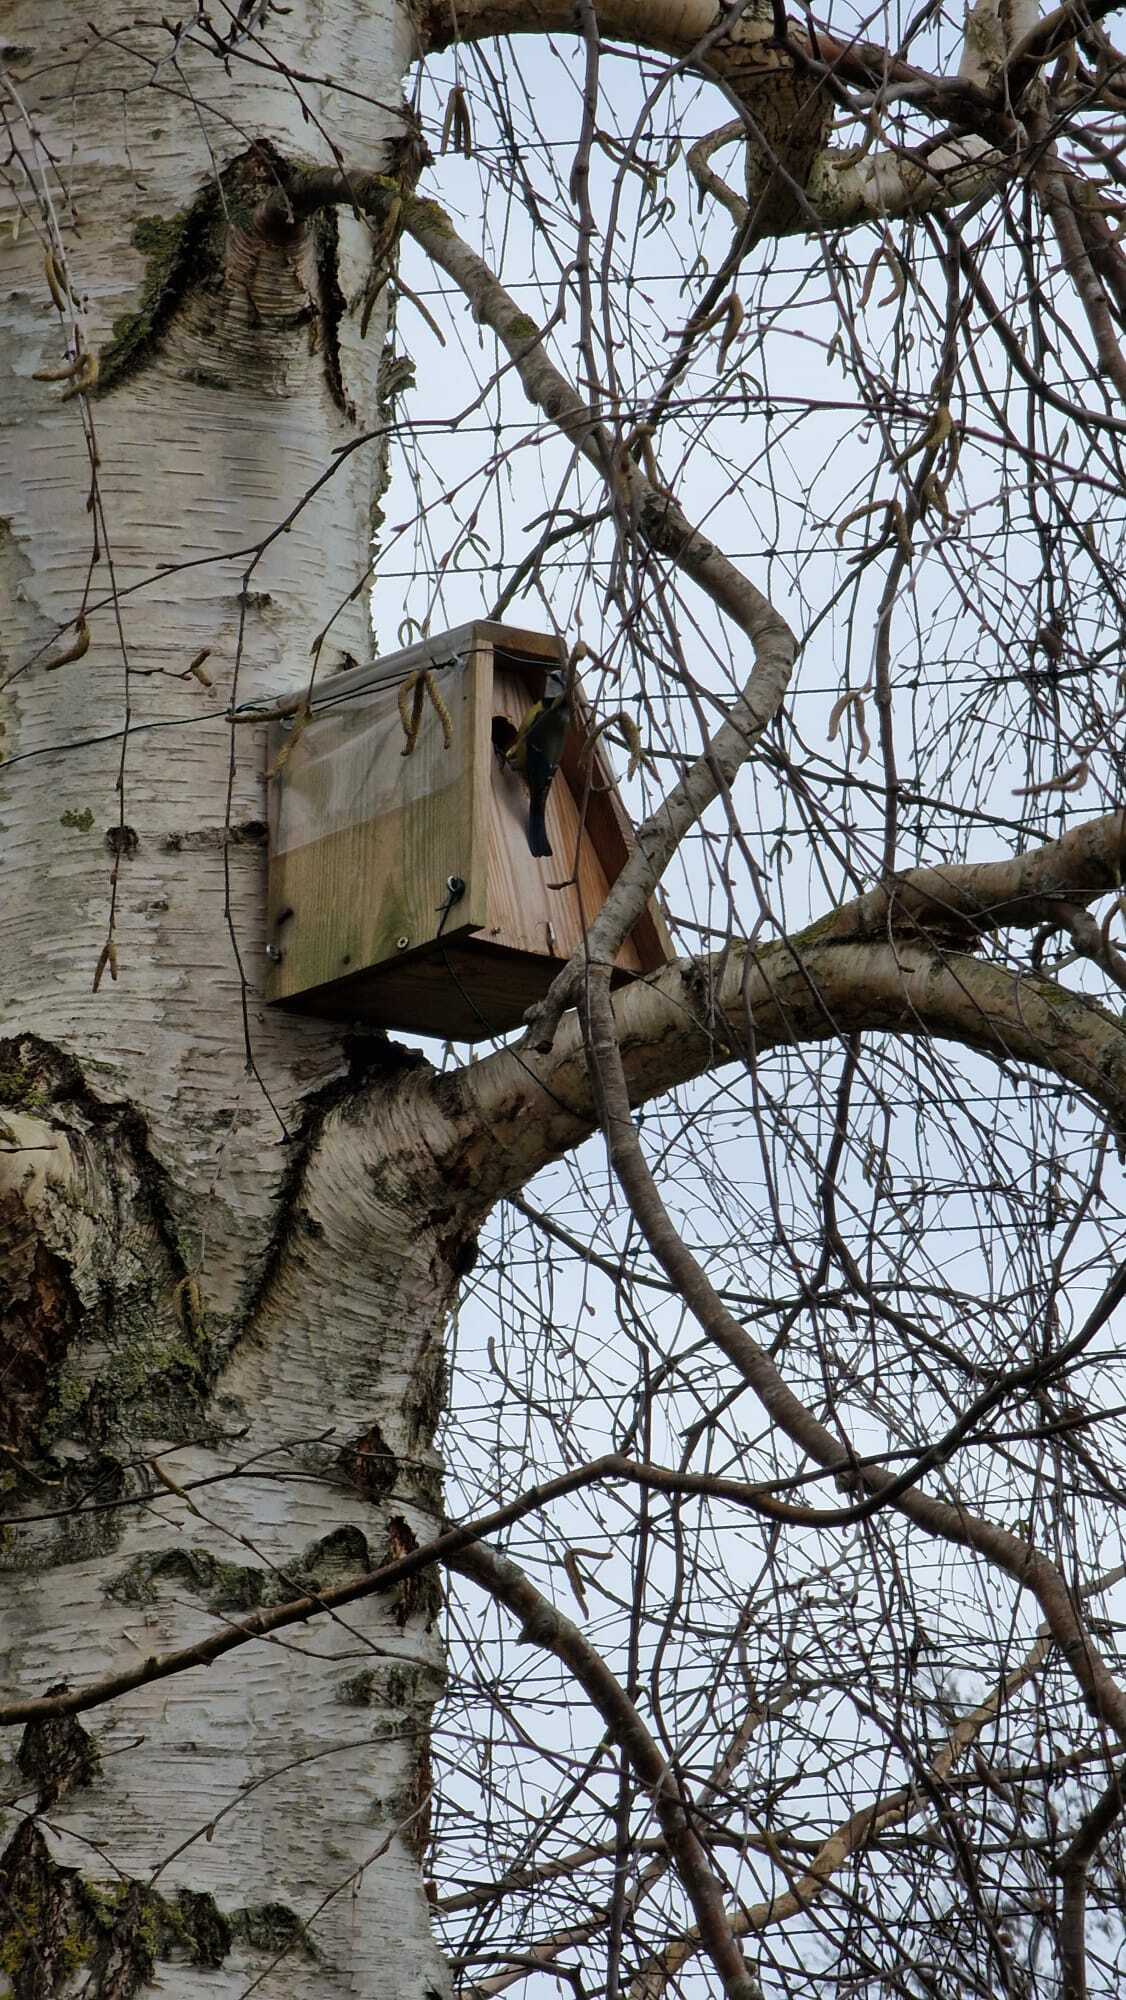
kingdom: Animalia
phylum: Chordata
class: Aves
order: Passeriformes
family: Paridae
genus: Cyanistes
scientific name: Cyanistes caeruleus
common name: Eurasian blue tit
